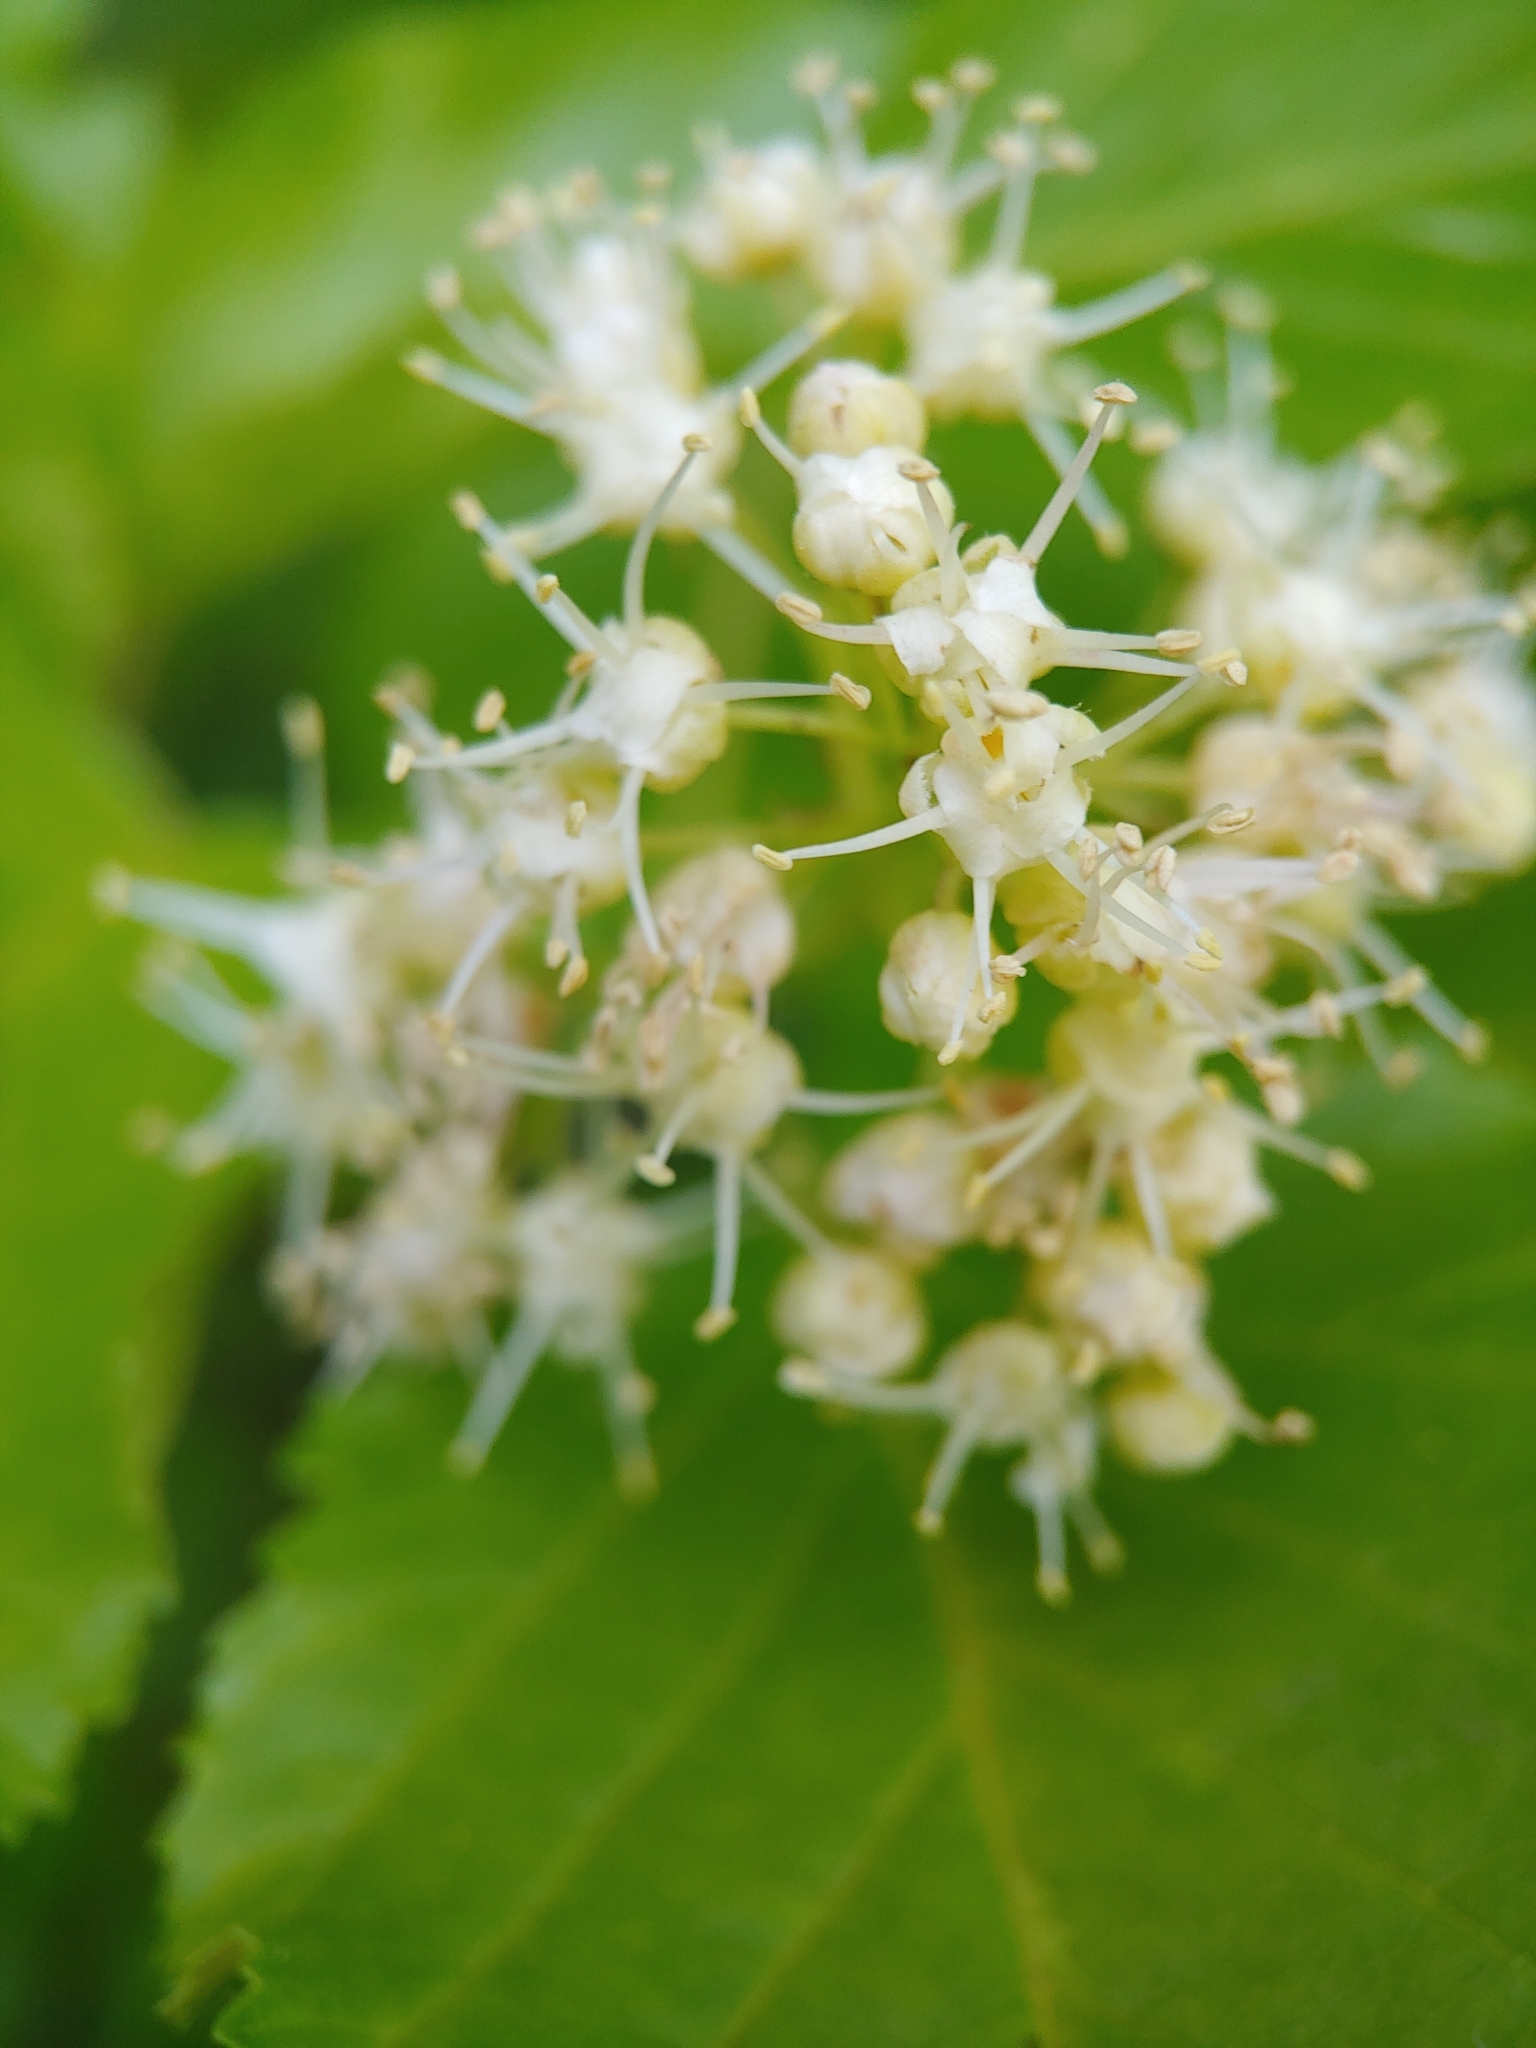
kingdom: Plantae
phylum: Tracheophyta
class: Magnoliopsida
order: Sapindales
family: Sapindaceae
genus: Acer
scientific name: Acer tataricum
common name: Tartar maple
